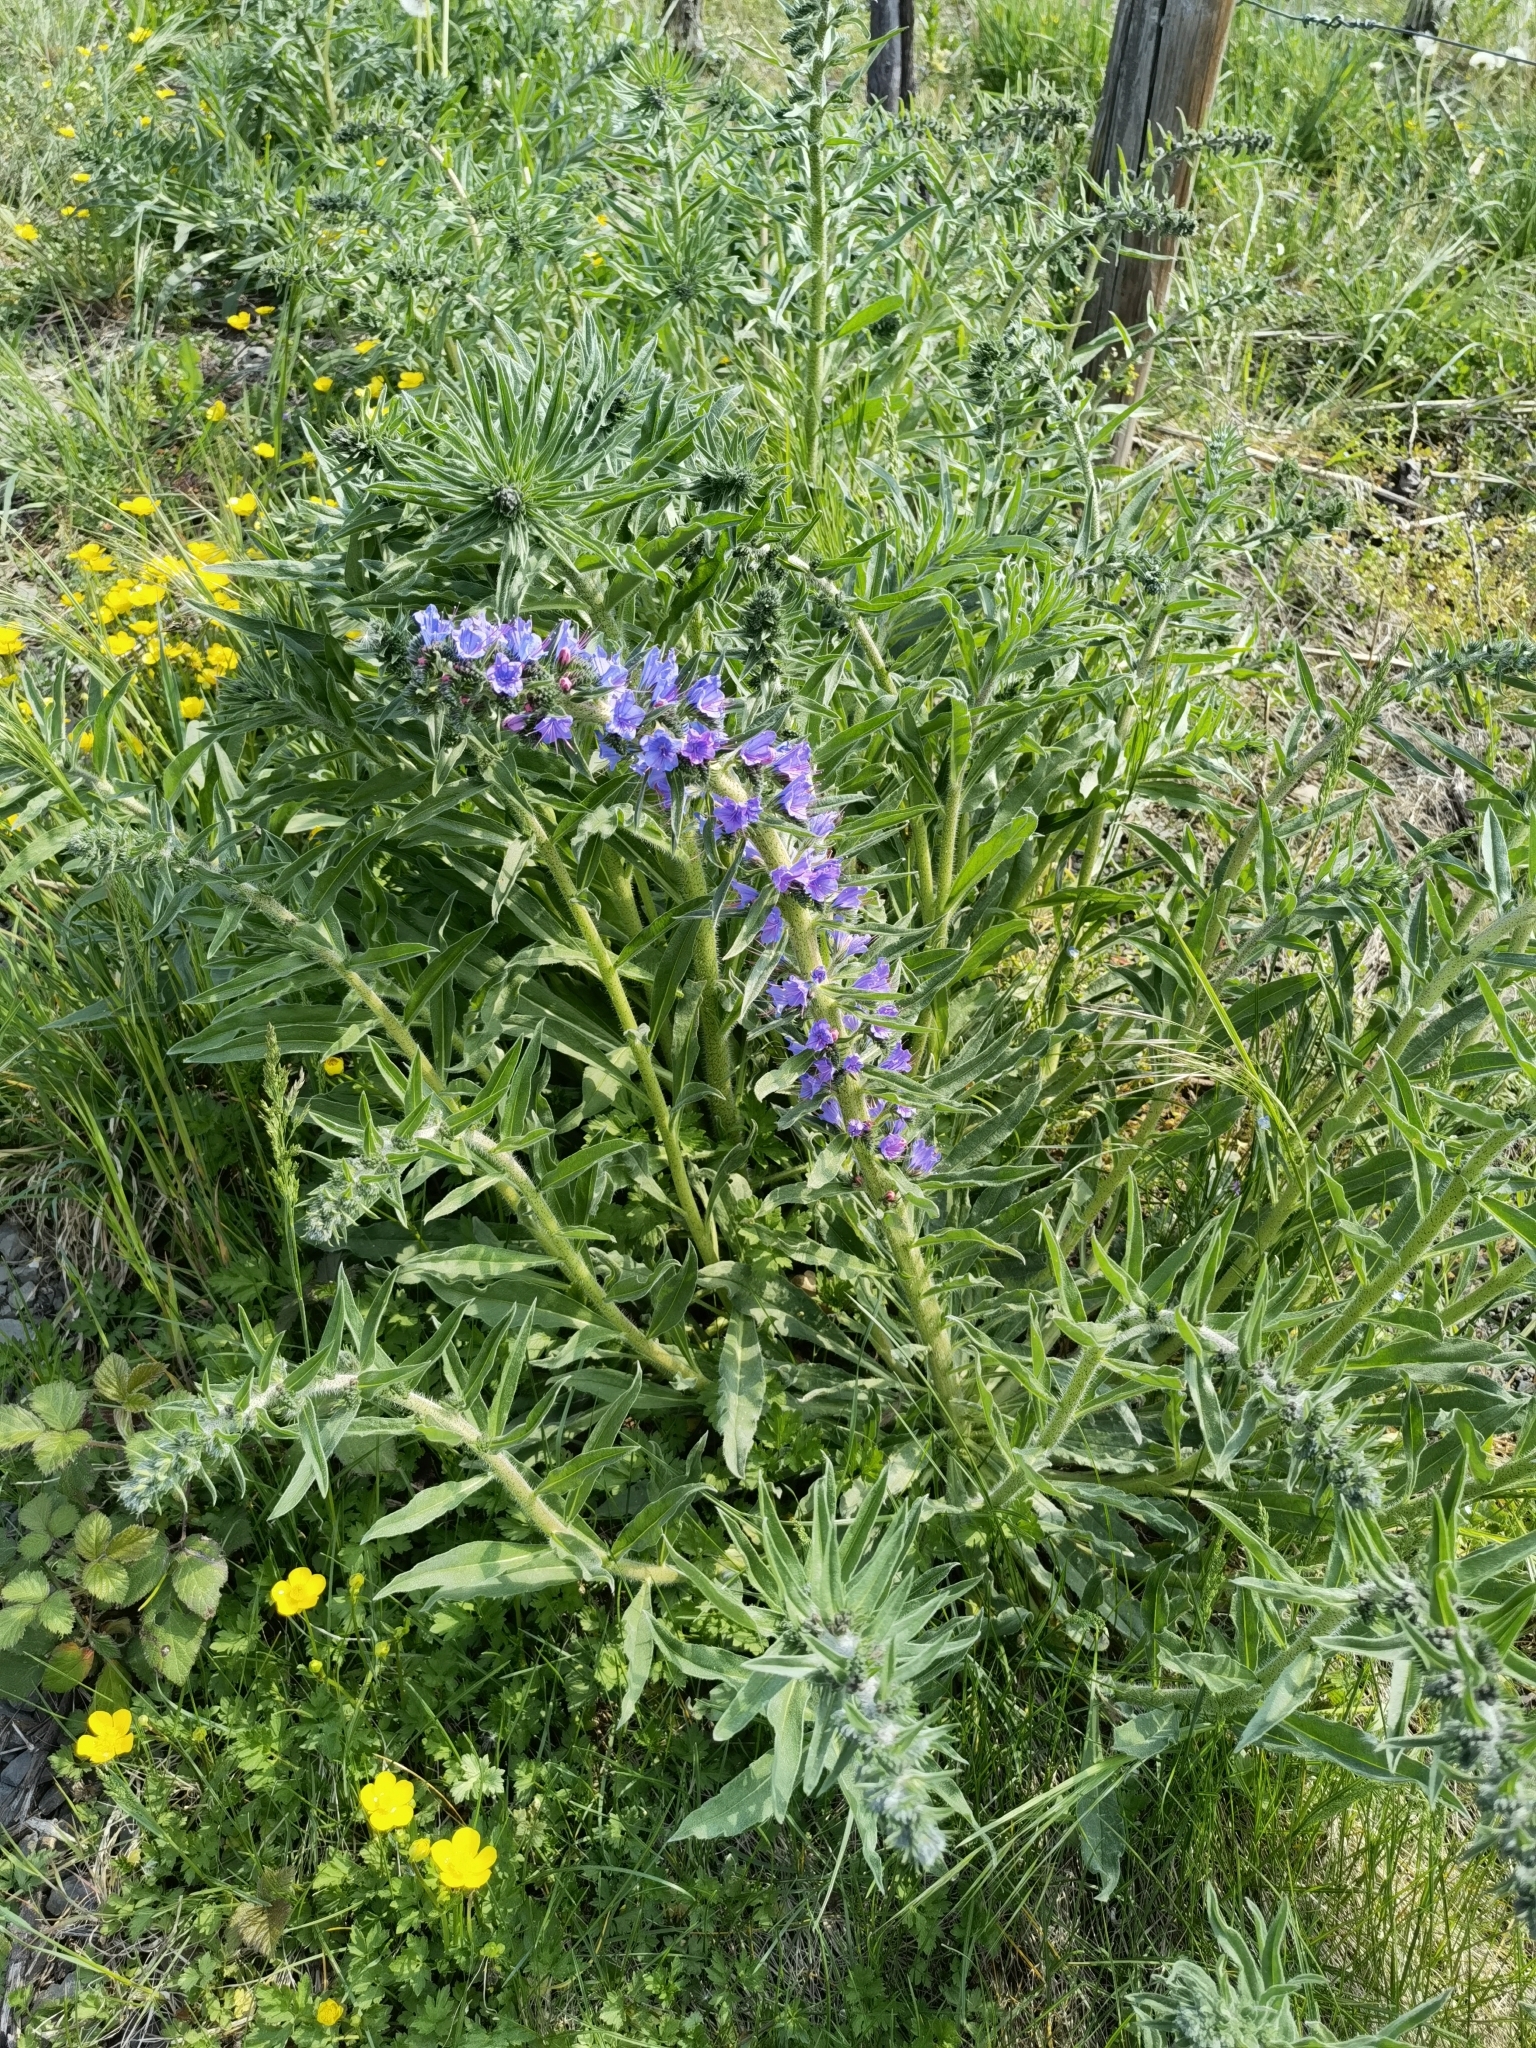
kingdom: Plantae
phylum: Tracheophyta
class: Magnoliopsida
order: Boraginales
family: Boraginaceae
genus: Echium
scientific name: Echium vulgare
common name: Common viper's bugloss
